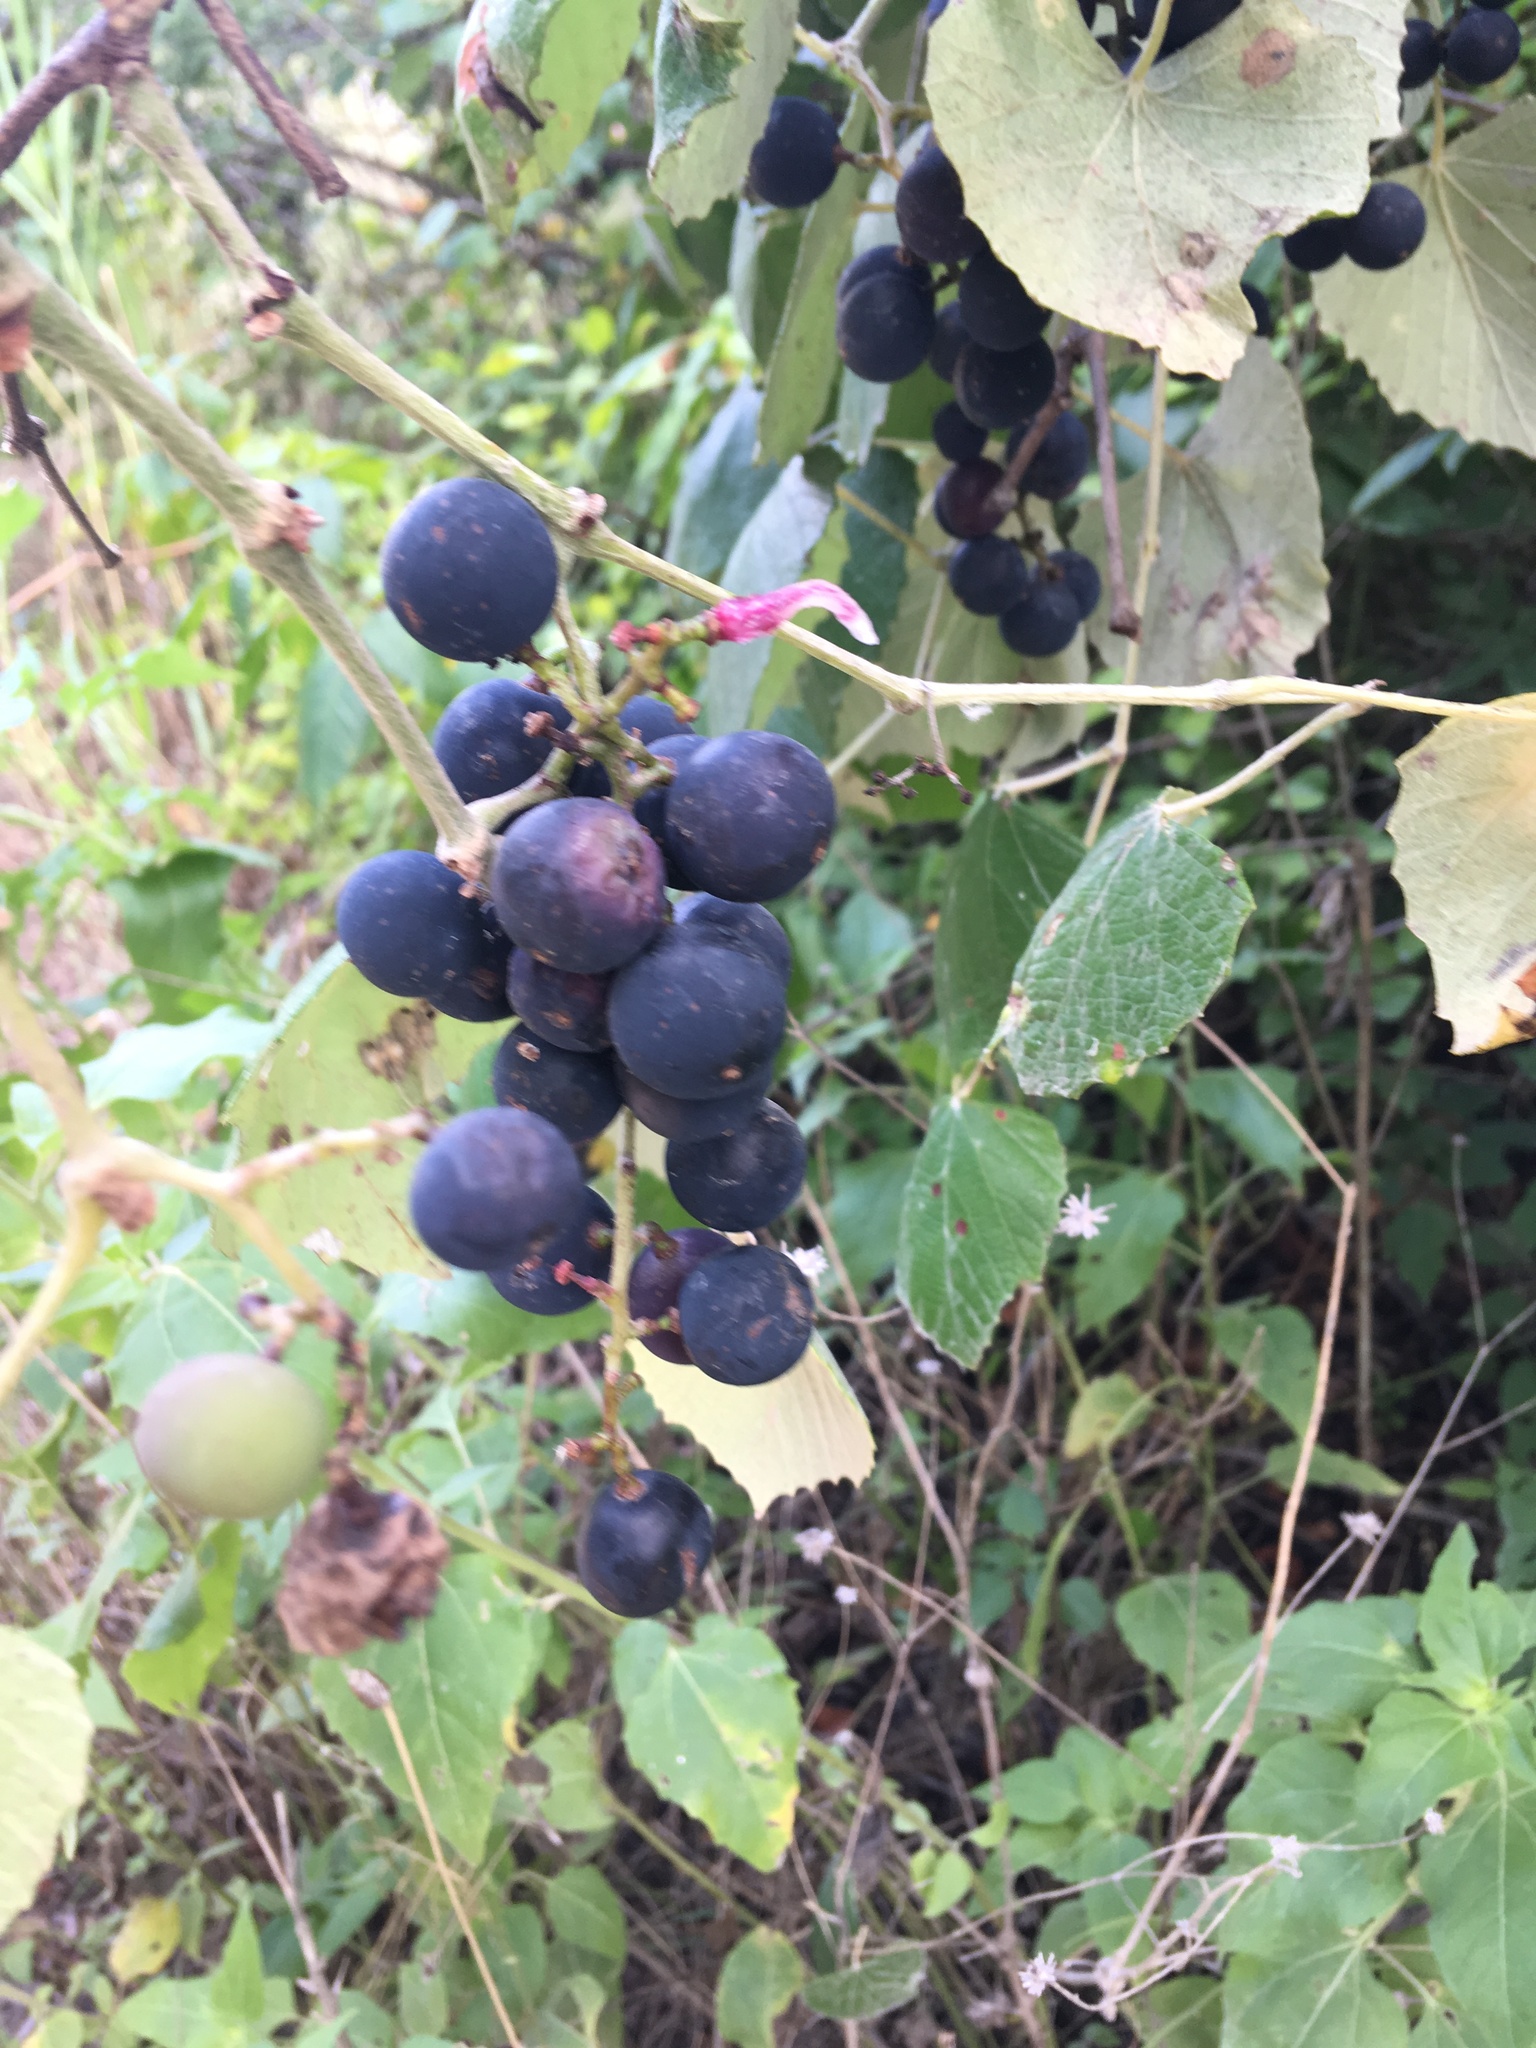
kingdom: Plantae
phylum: Tracheophyta
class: Magnoliopsida
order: Vitales
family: Vitaceae
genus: Vitis
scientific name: Vitis mustangensis
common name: Mustang grape
